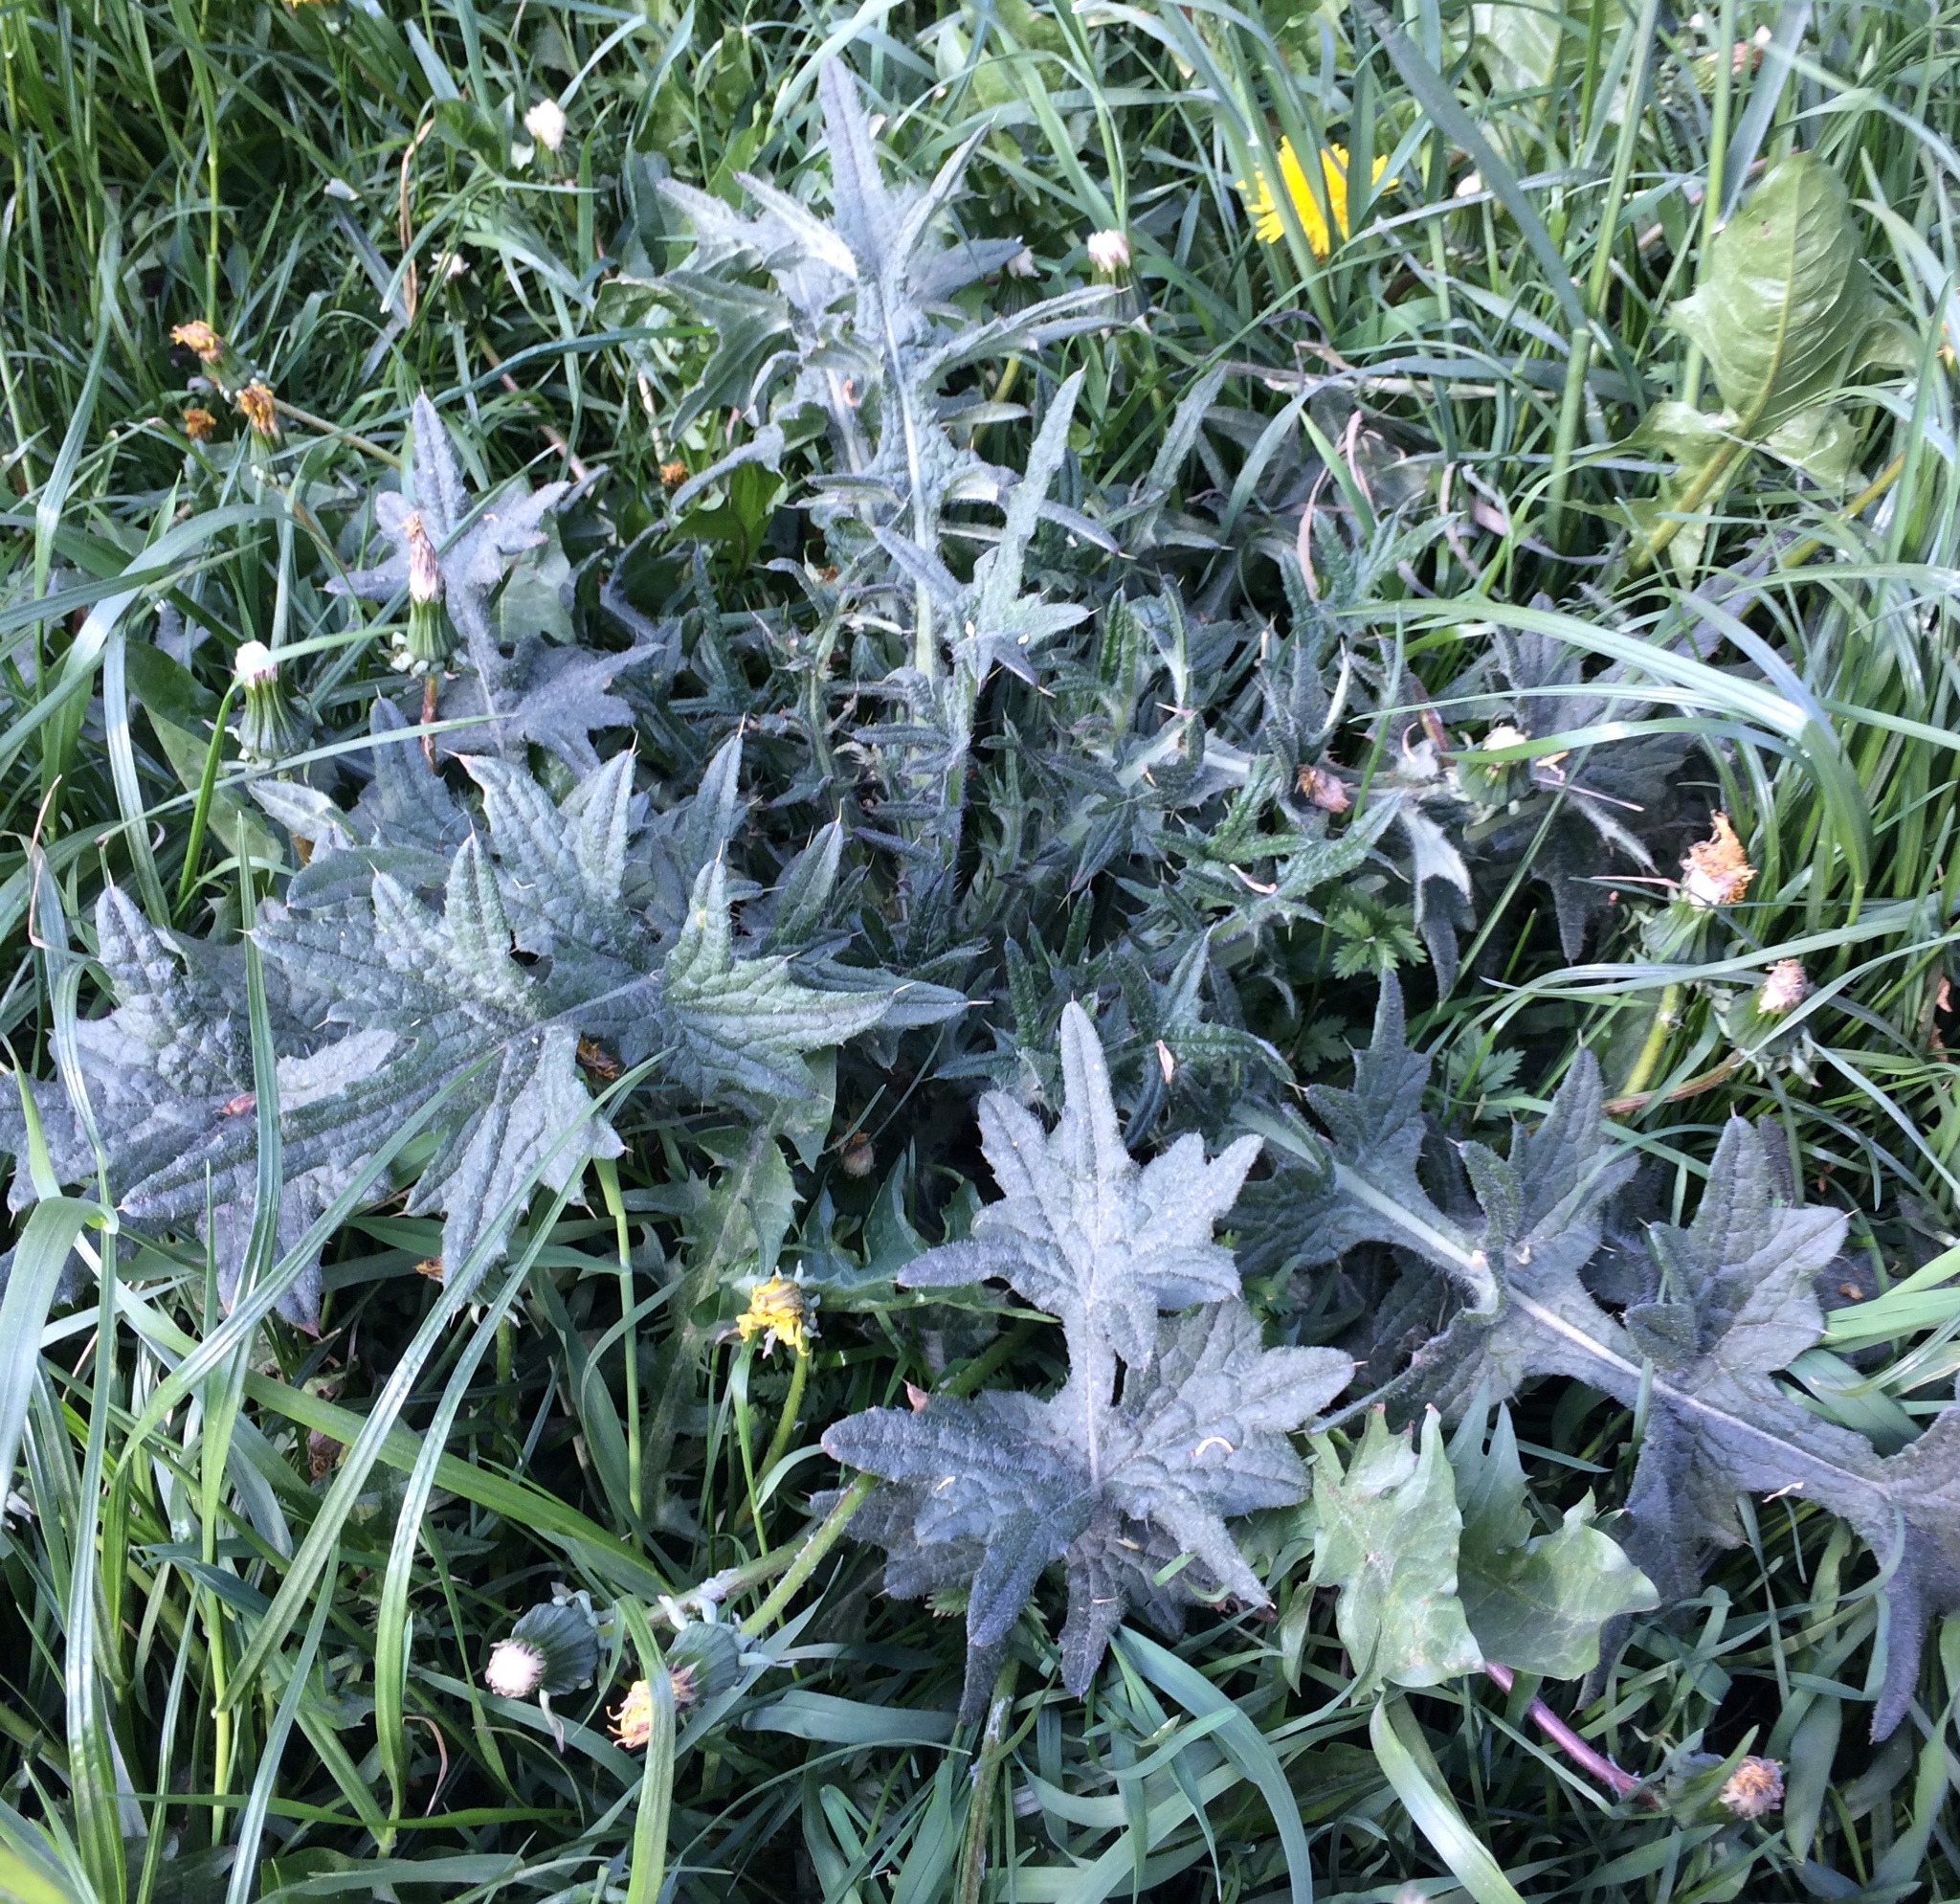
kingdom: Plantae
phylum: Tracheophyta
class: Magnoliopsida
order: Asterales
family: Asteraceae
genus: Cirsium
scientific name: Cirsium vulgare
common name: Bull thistle
